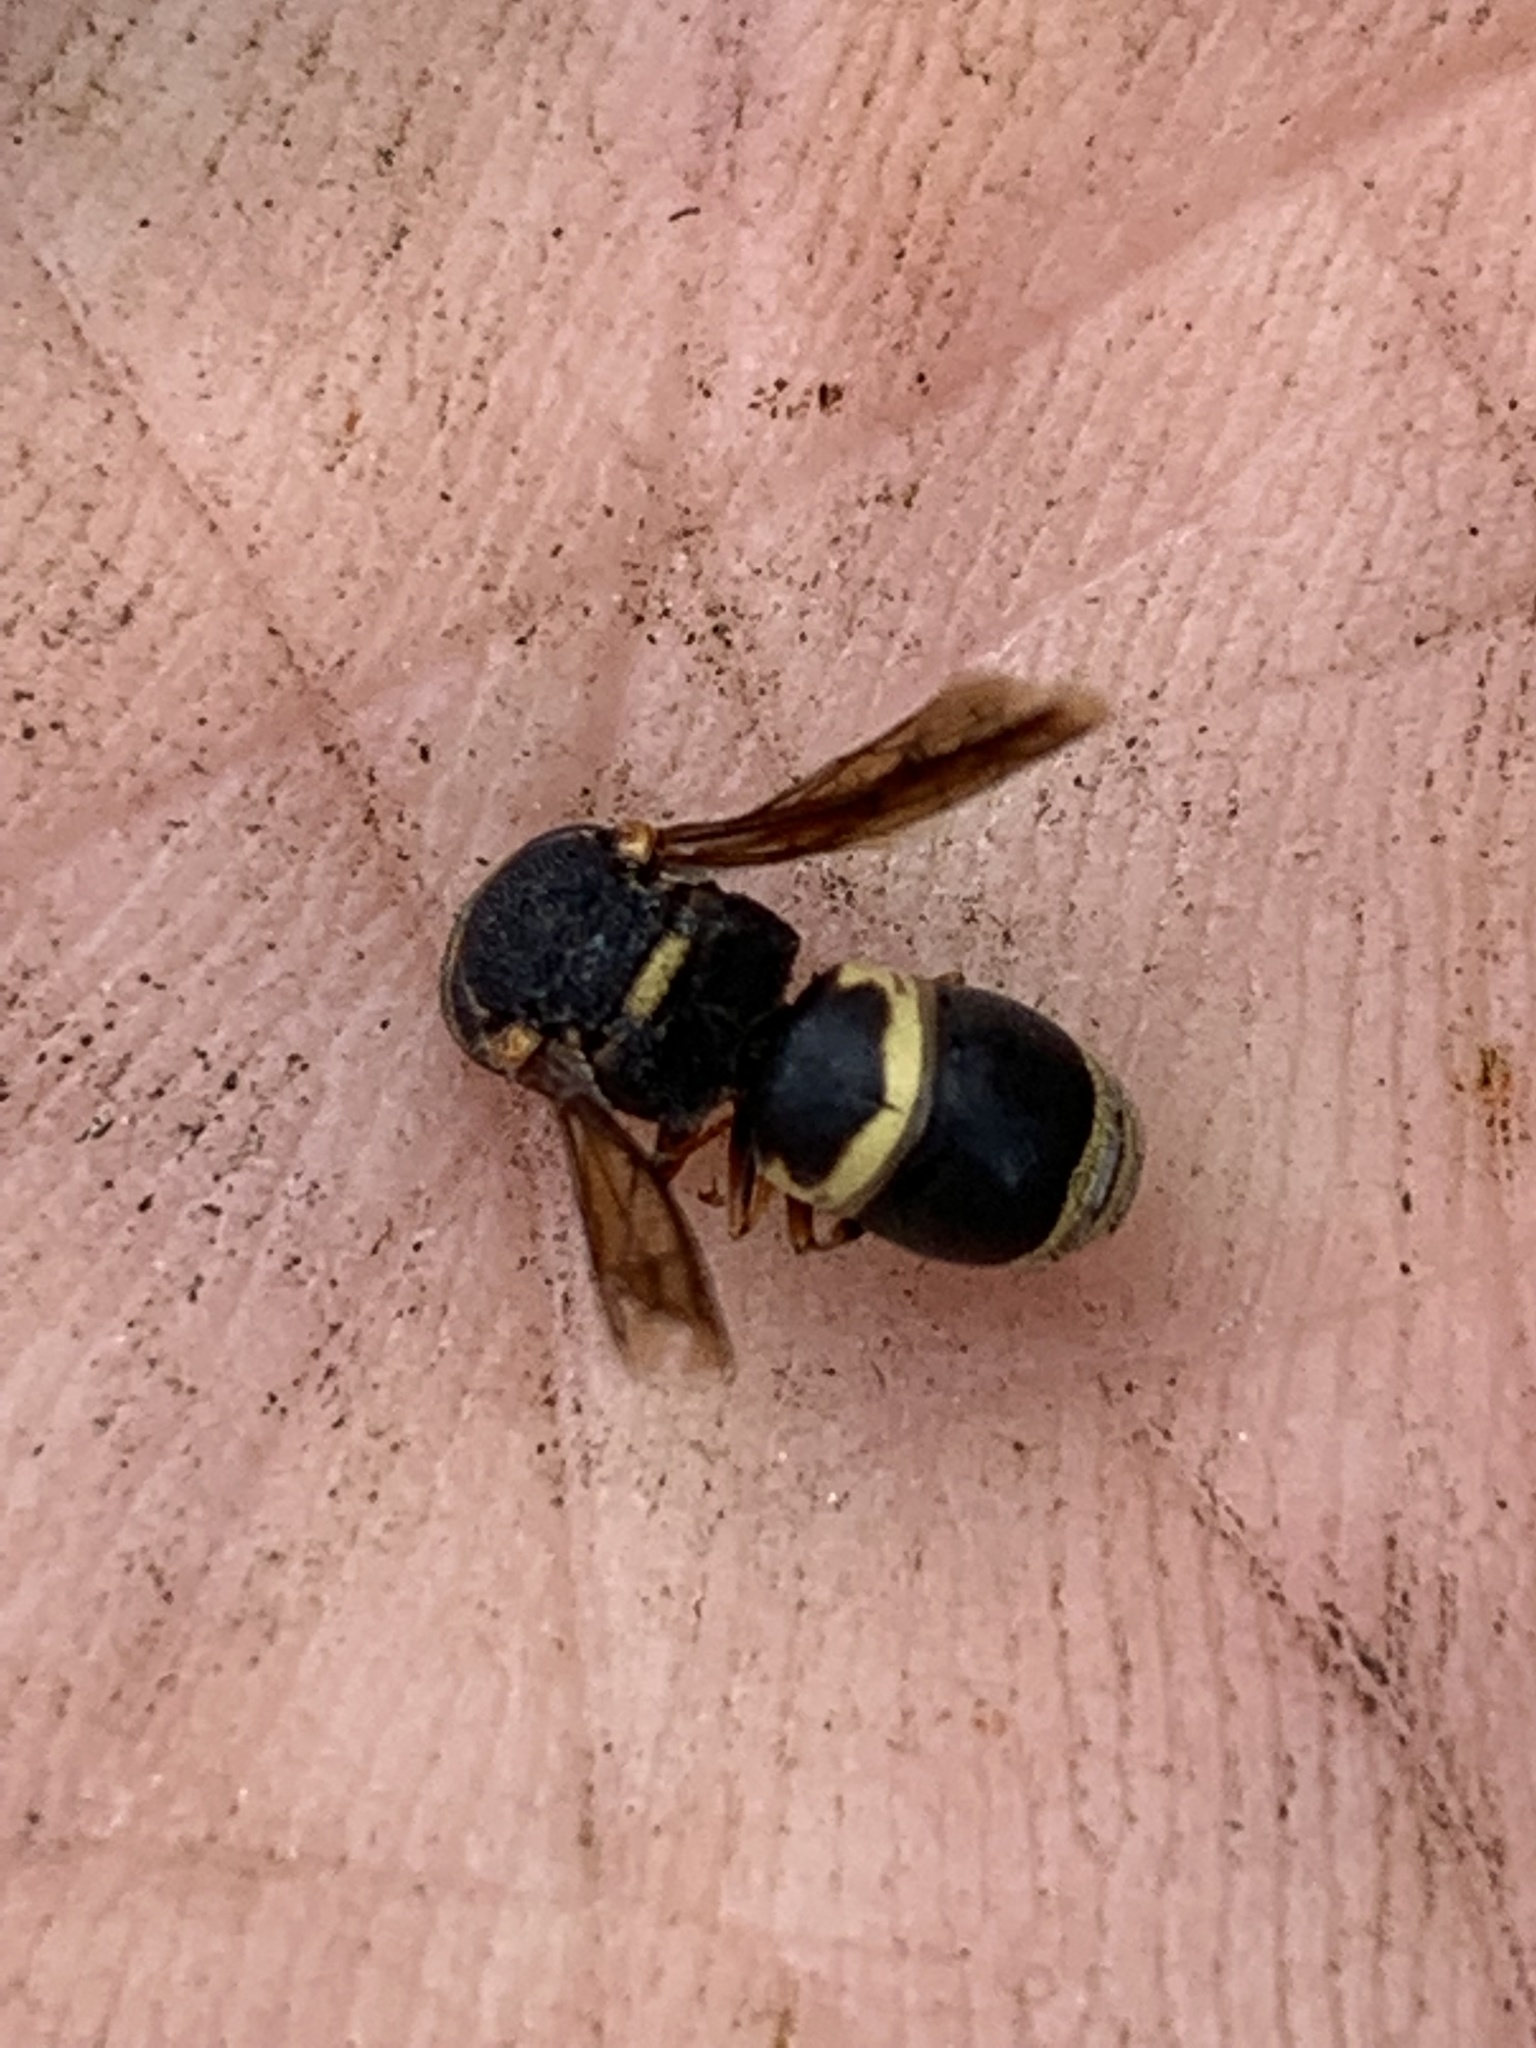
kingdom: Animalia
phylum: Arthropoda
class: Insecta
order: Hymenoptera
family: Eumenidae
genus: Euodynerus
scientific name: Euodynerus hidalgo
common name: Wasp
